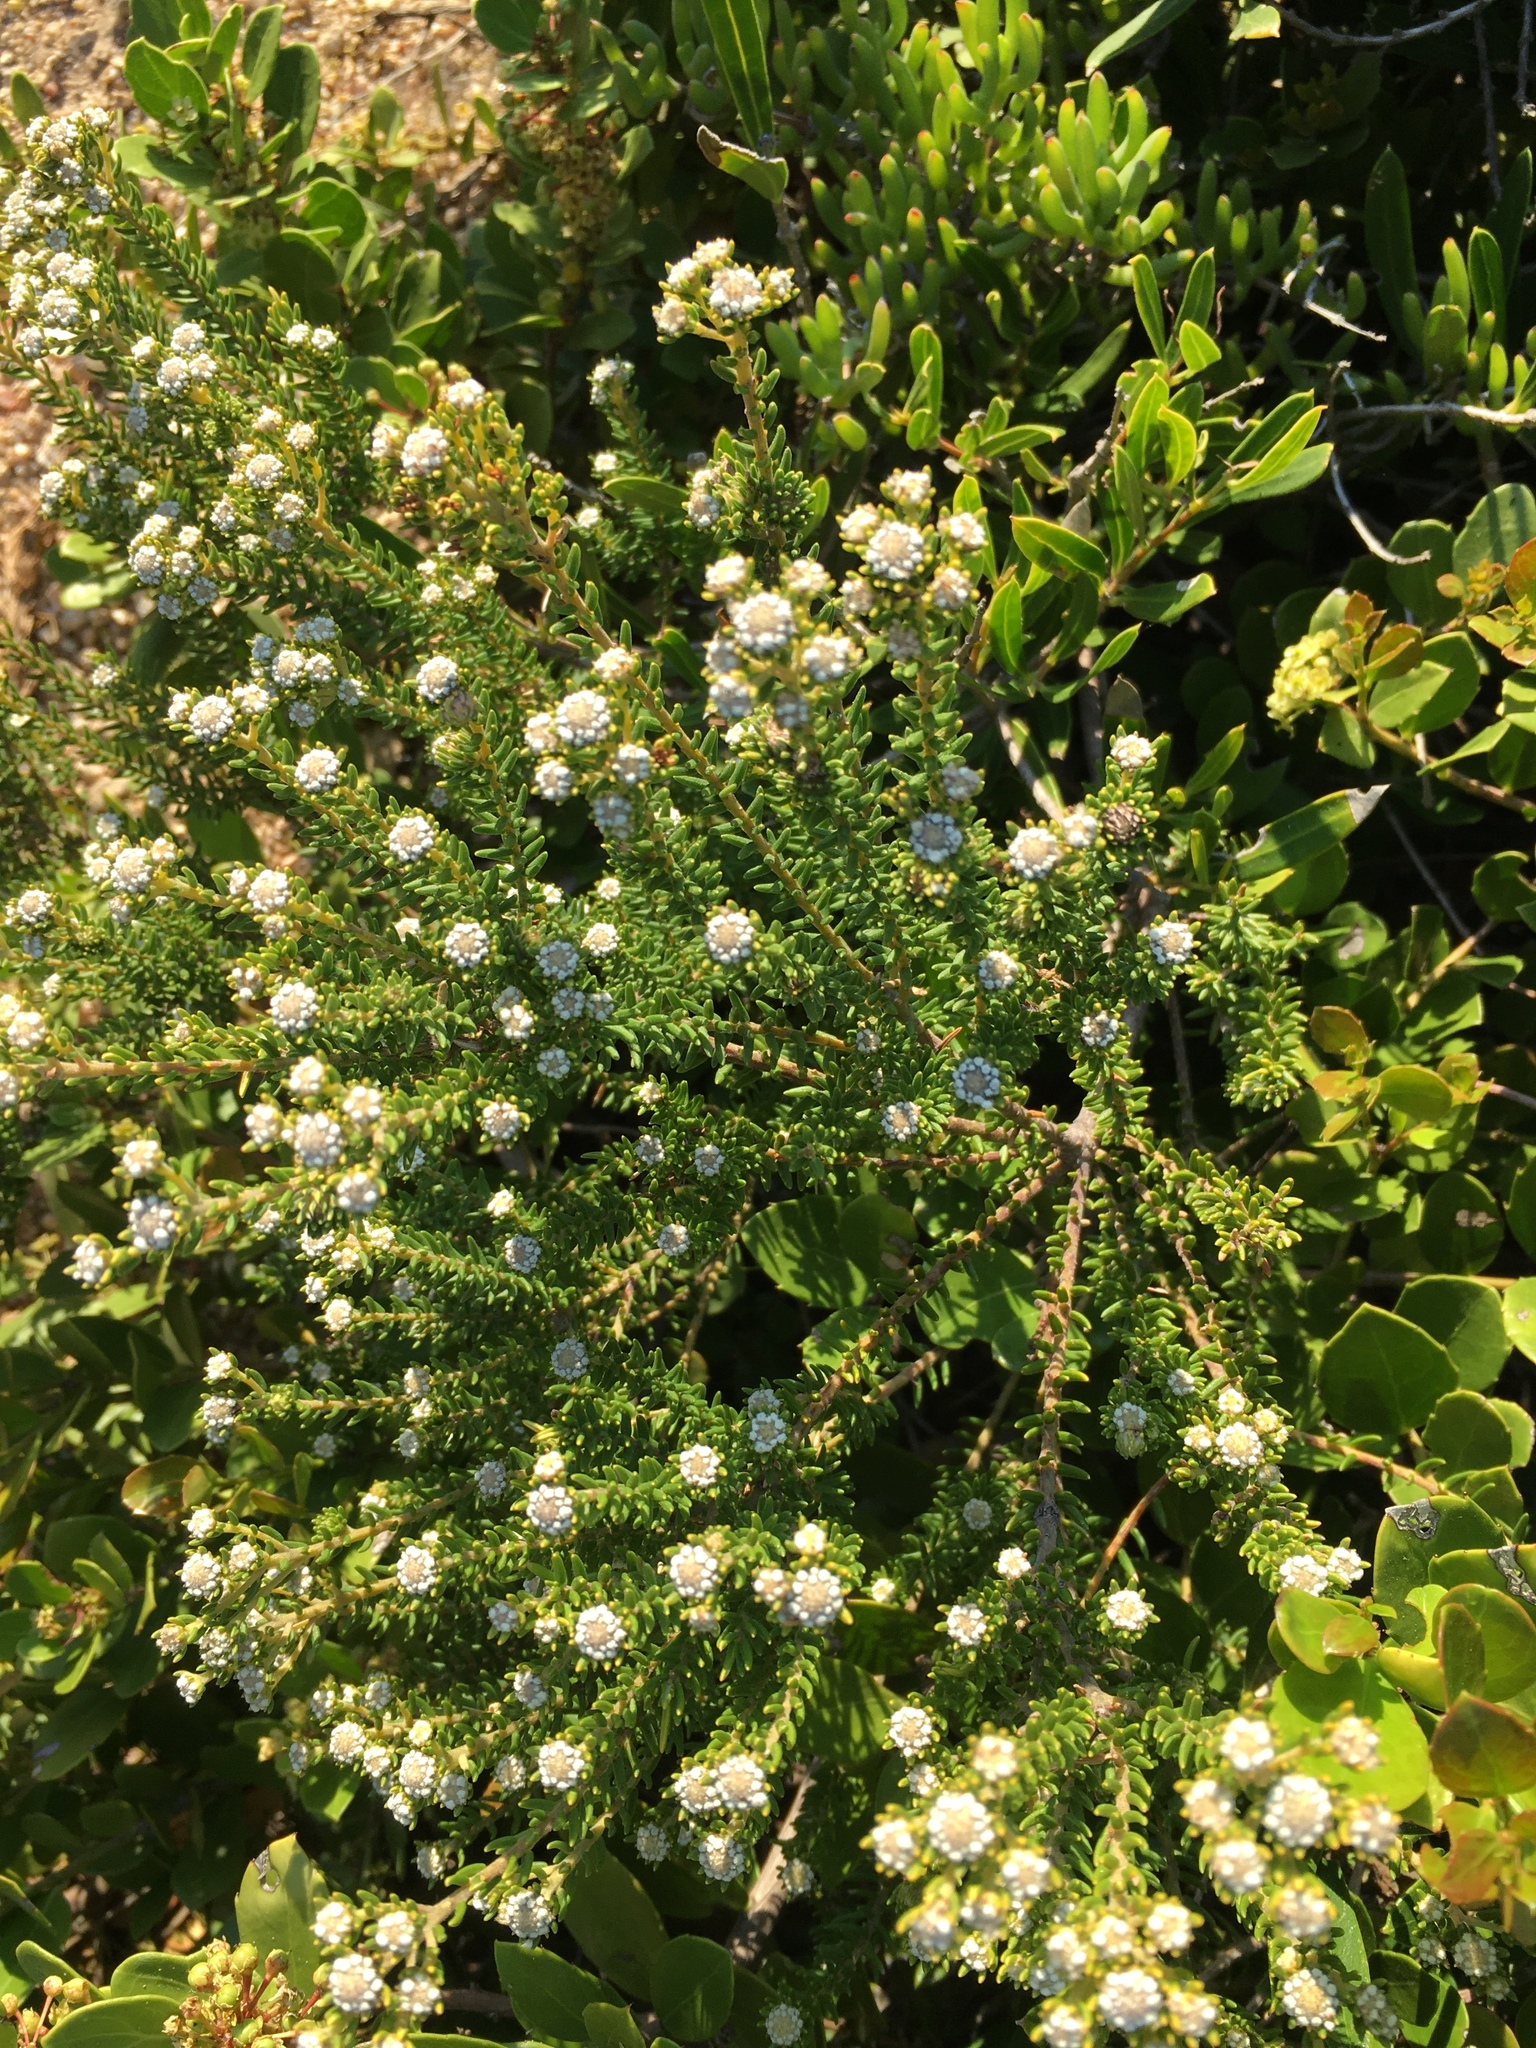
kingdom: Plantae
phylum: Tracheophyta
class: Magnoliopsida
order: Rosales
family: Rhamnaceae
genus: Phylica
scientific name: Phylica ericoides
